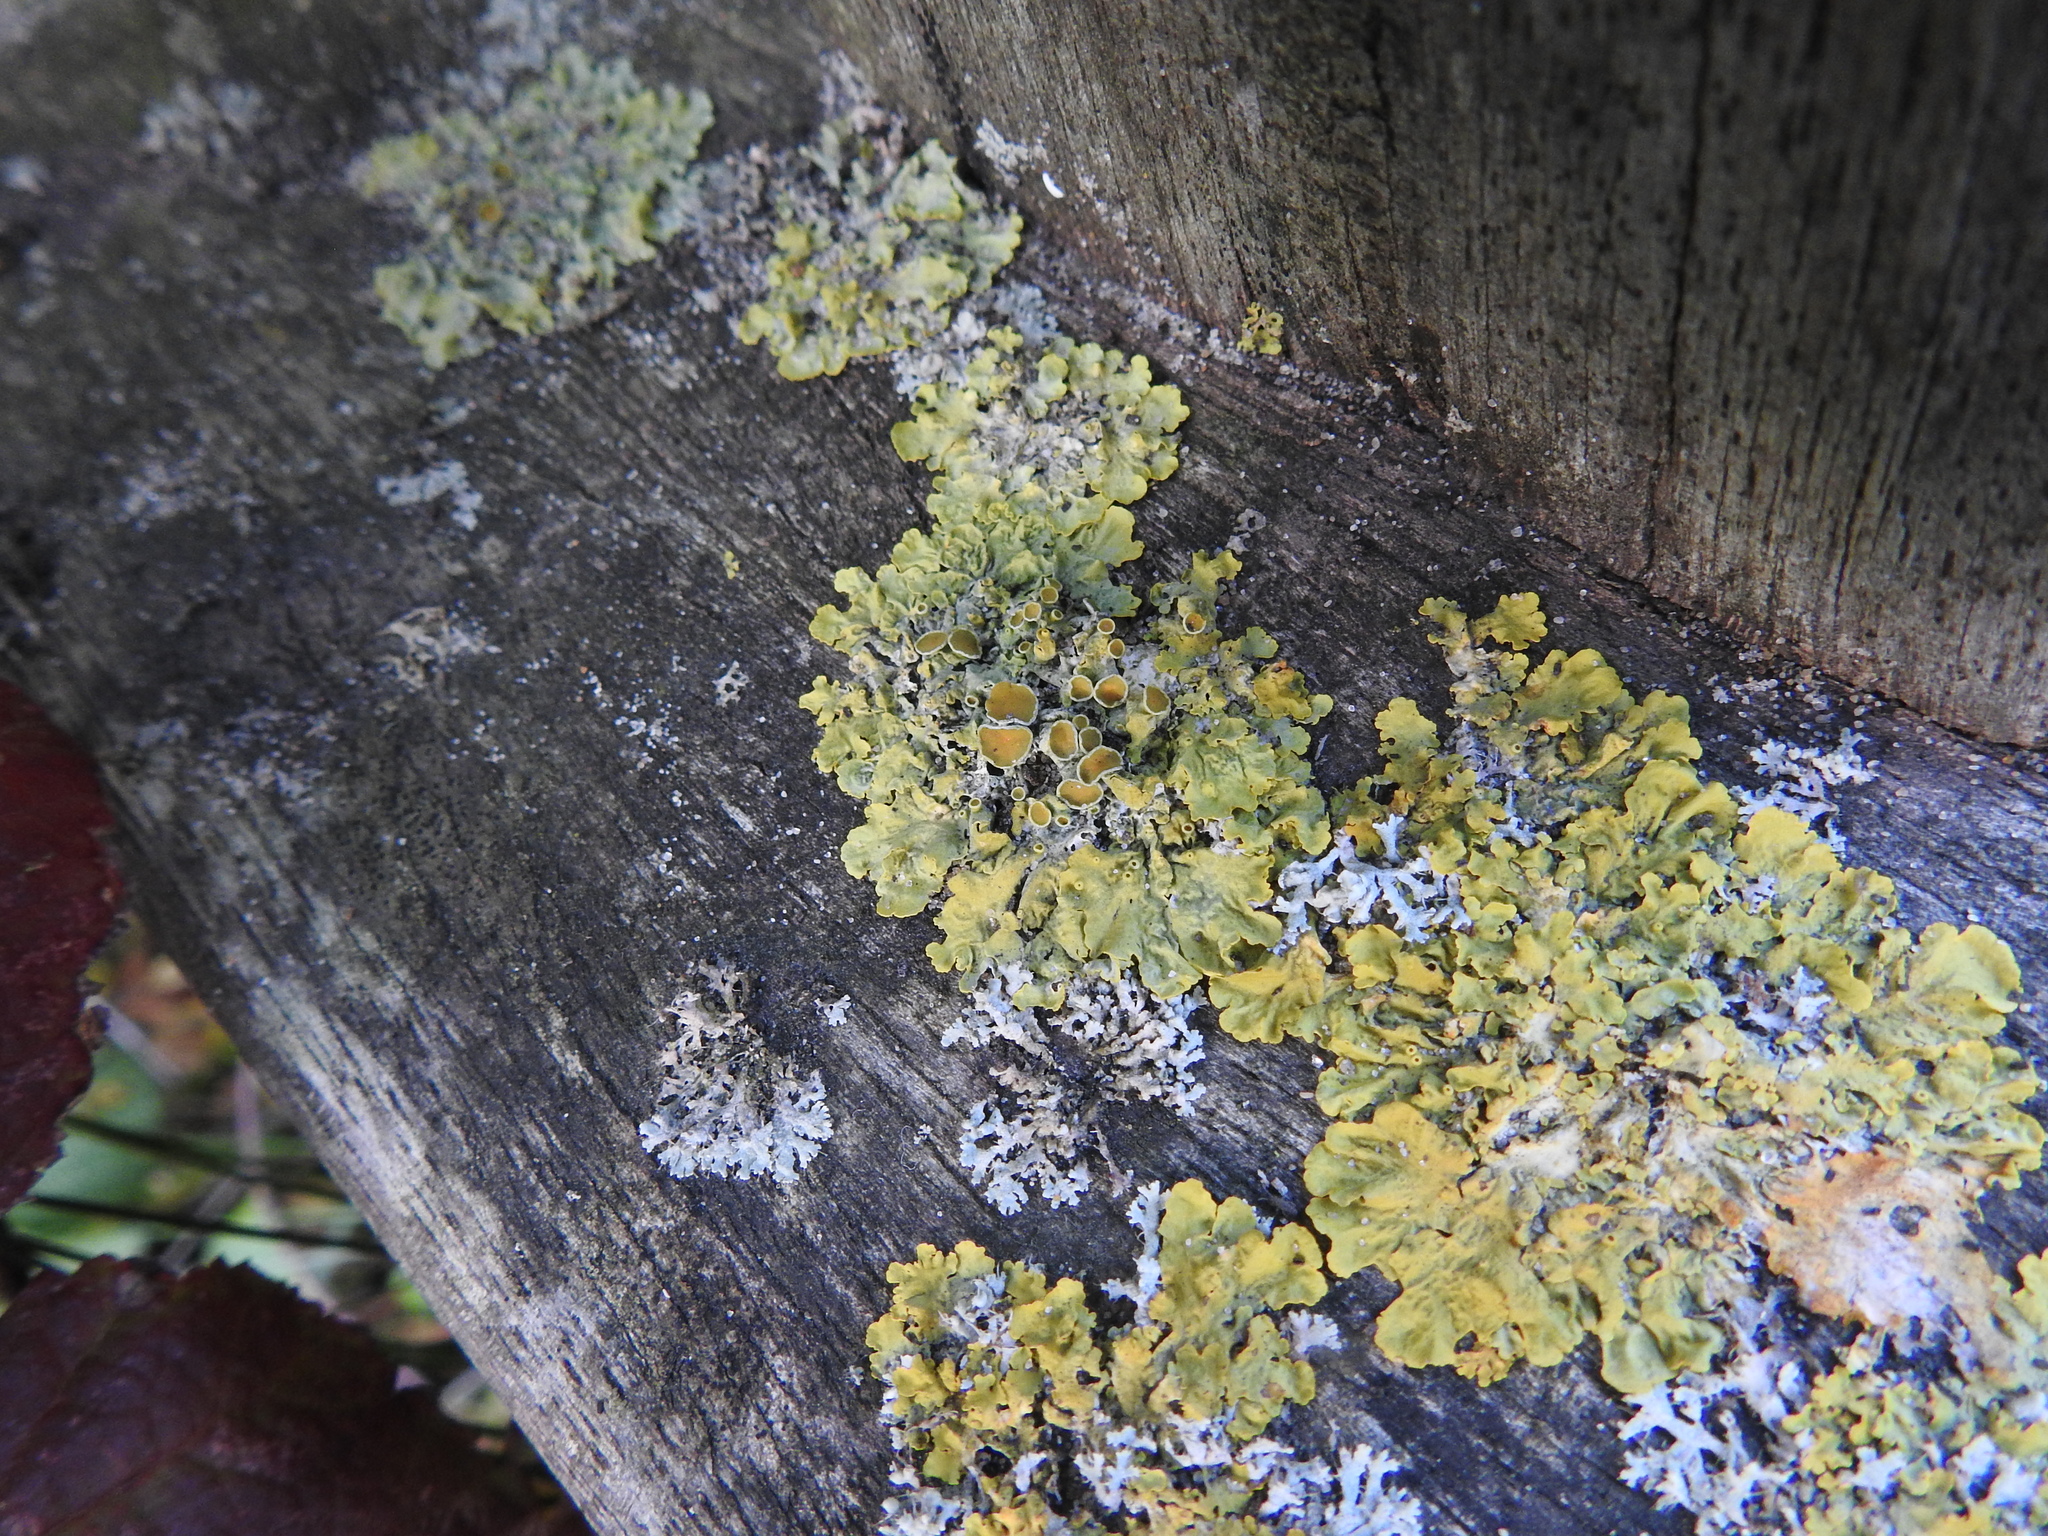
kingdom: Fungi
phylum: Ascomycota
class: Lecanoromycetes
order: Teloschistales
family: Teloschistaceae
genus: Xanthoria
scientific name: Xanthoria parietina
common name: Common orange lichen
